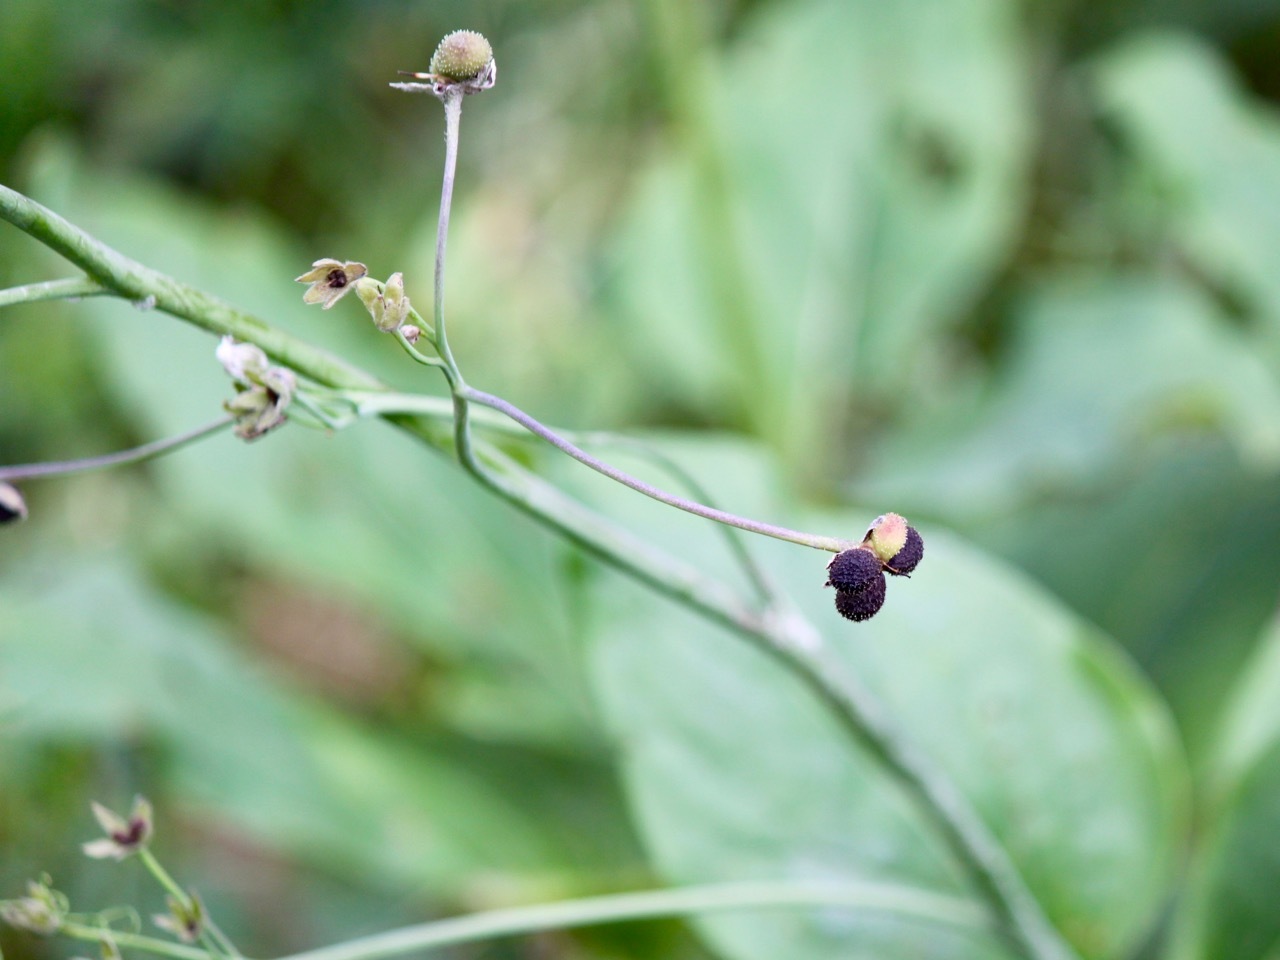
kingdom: Plantae
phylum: Tracheophyta
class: Magnoliopsida
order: Boraginales
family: Boraginaceae
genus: Adelinia
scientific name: Adelinia grande
